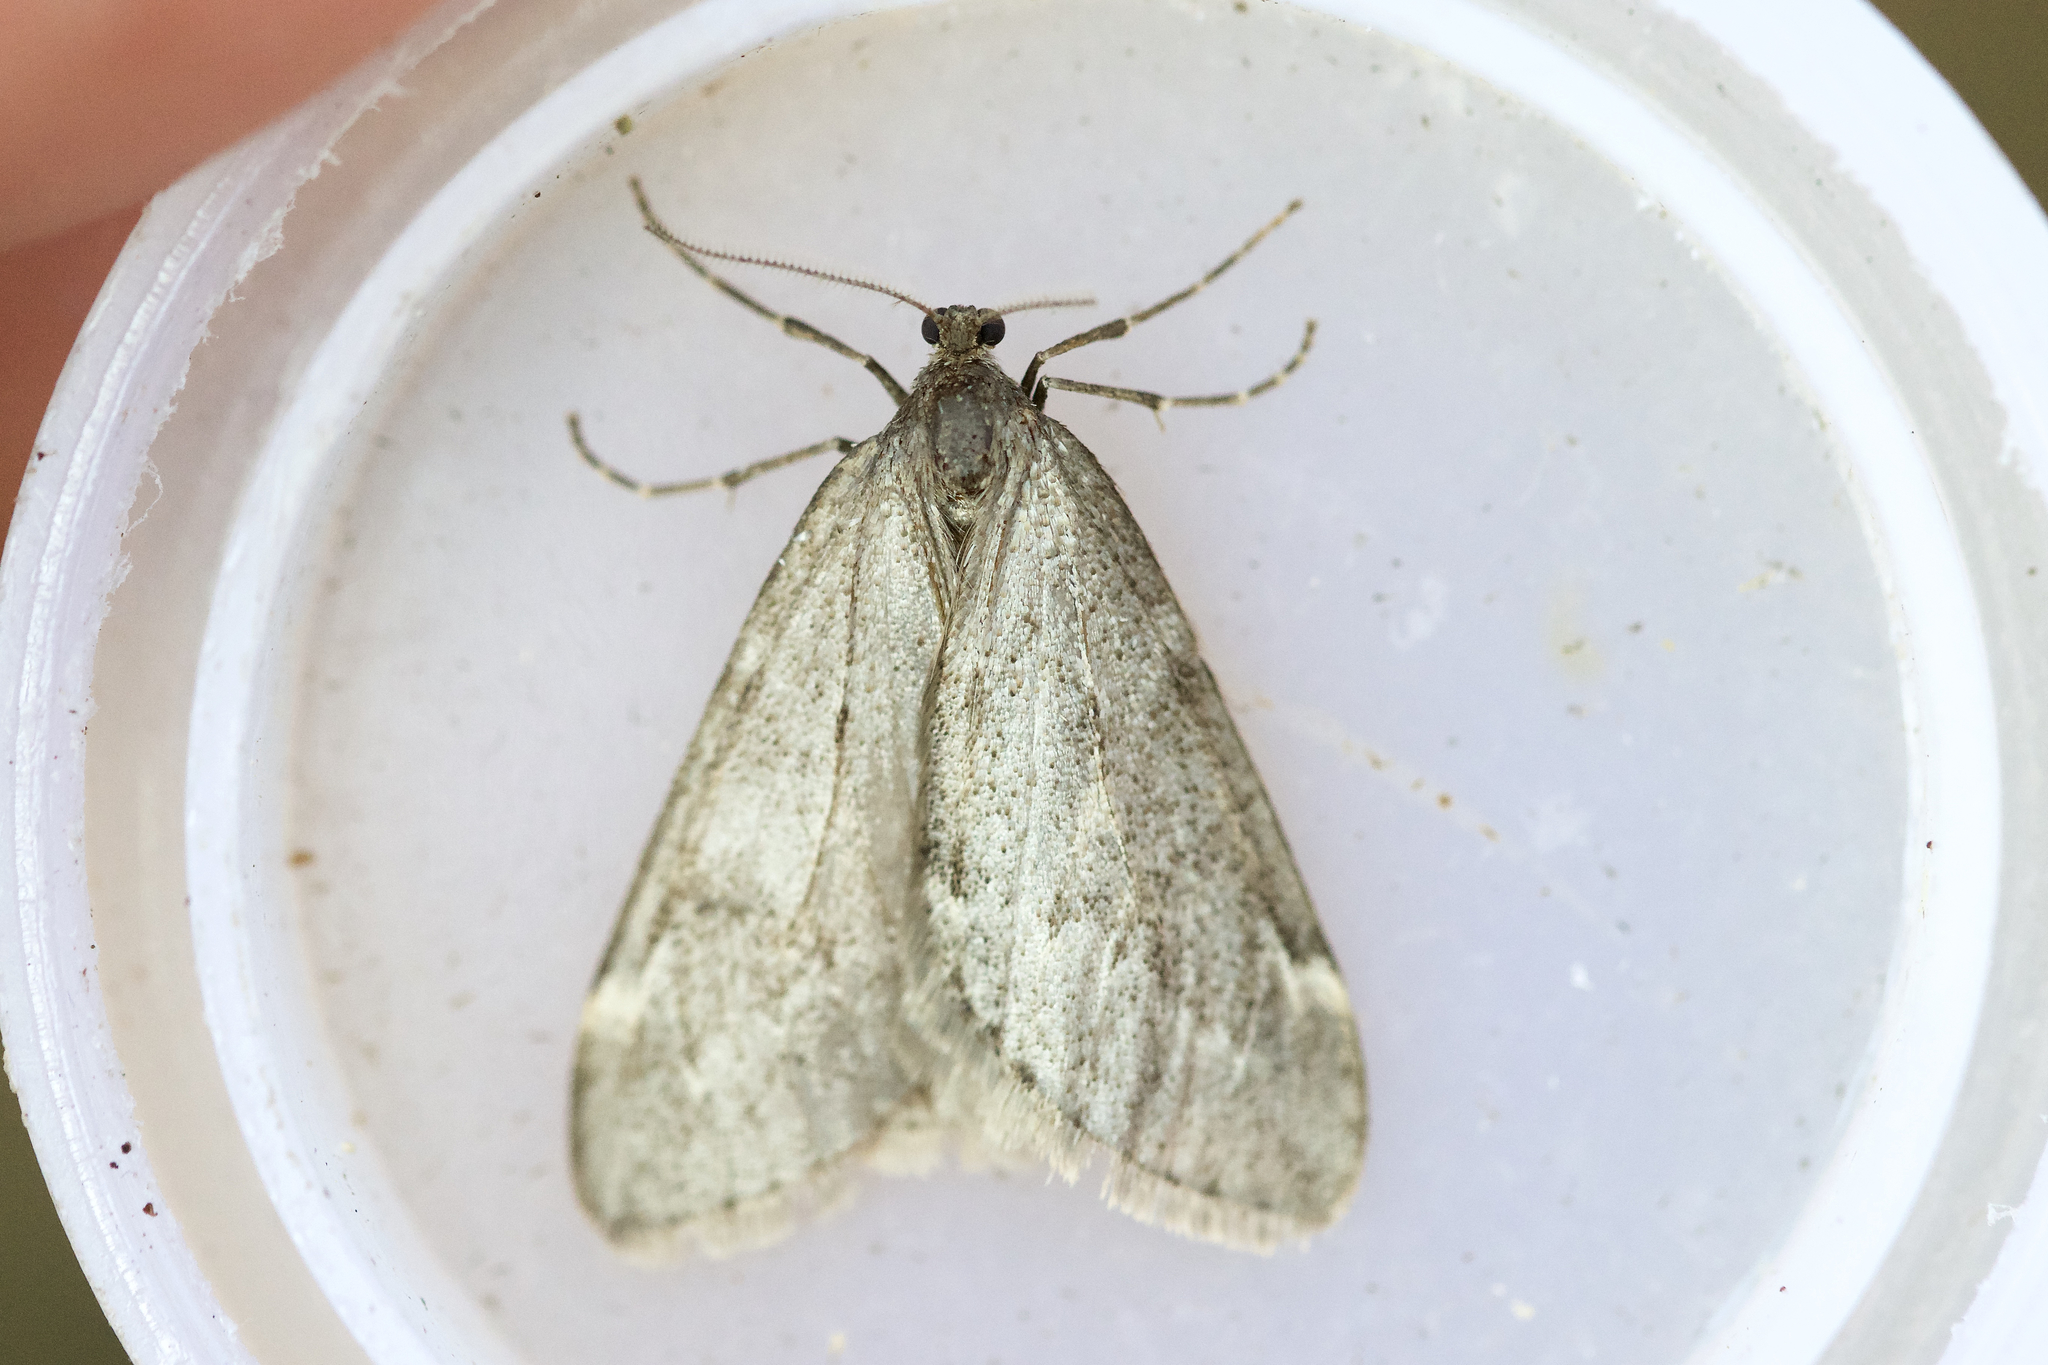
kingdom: Animalia
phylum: Arthropoda
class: Insecta
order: Lepidoptera
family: Geometridae
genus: Alsophila
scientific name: Alsophila pometaria
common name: Fall cankerworm
